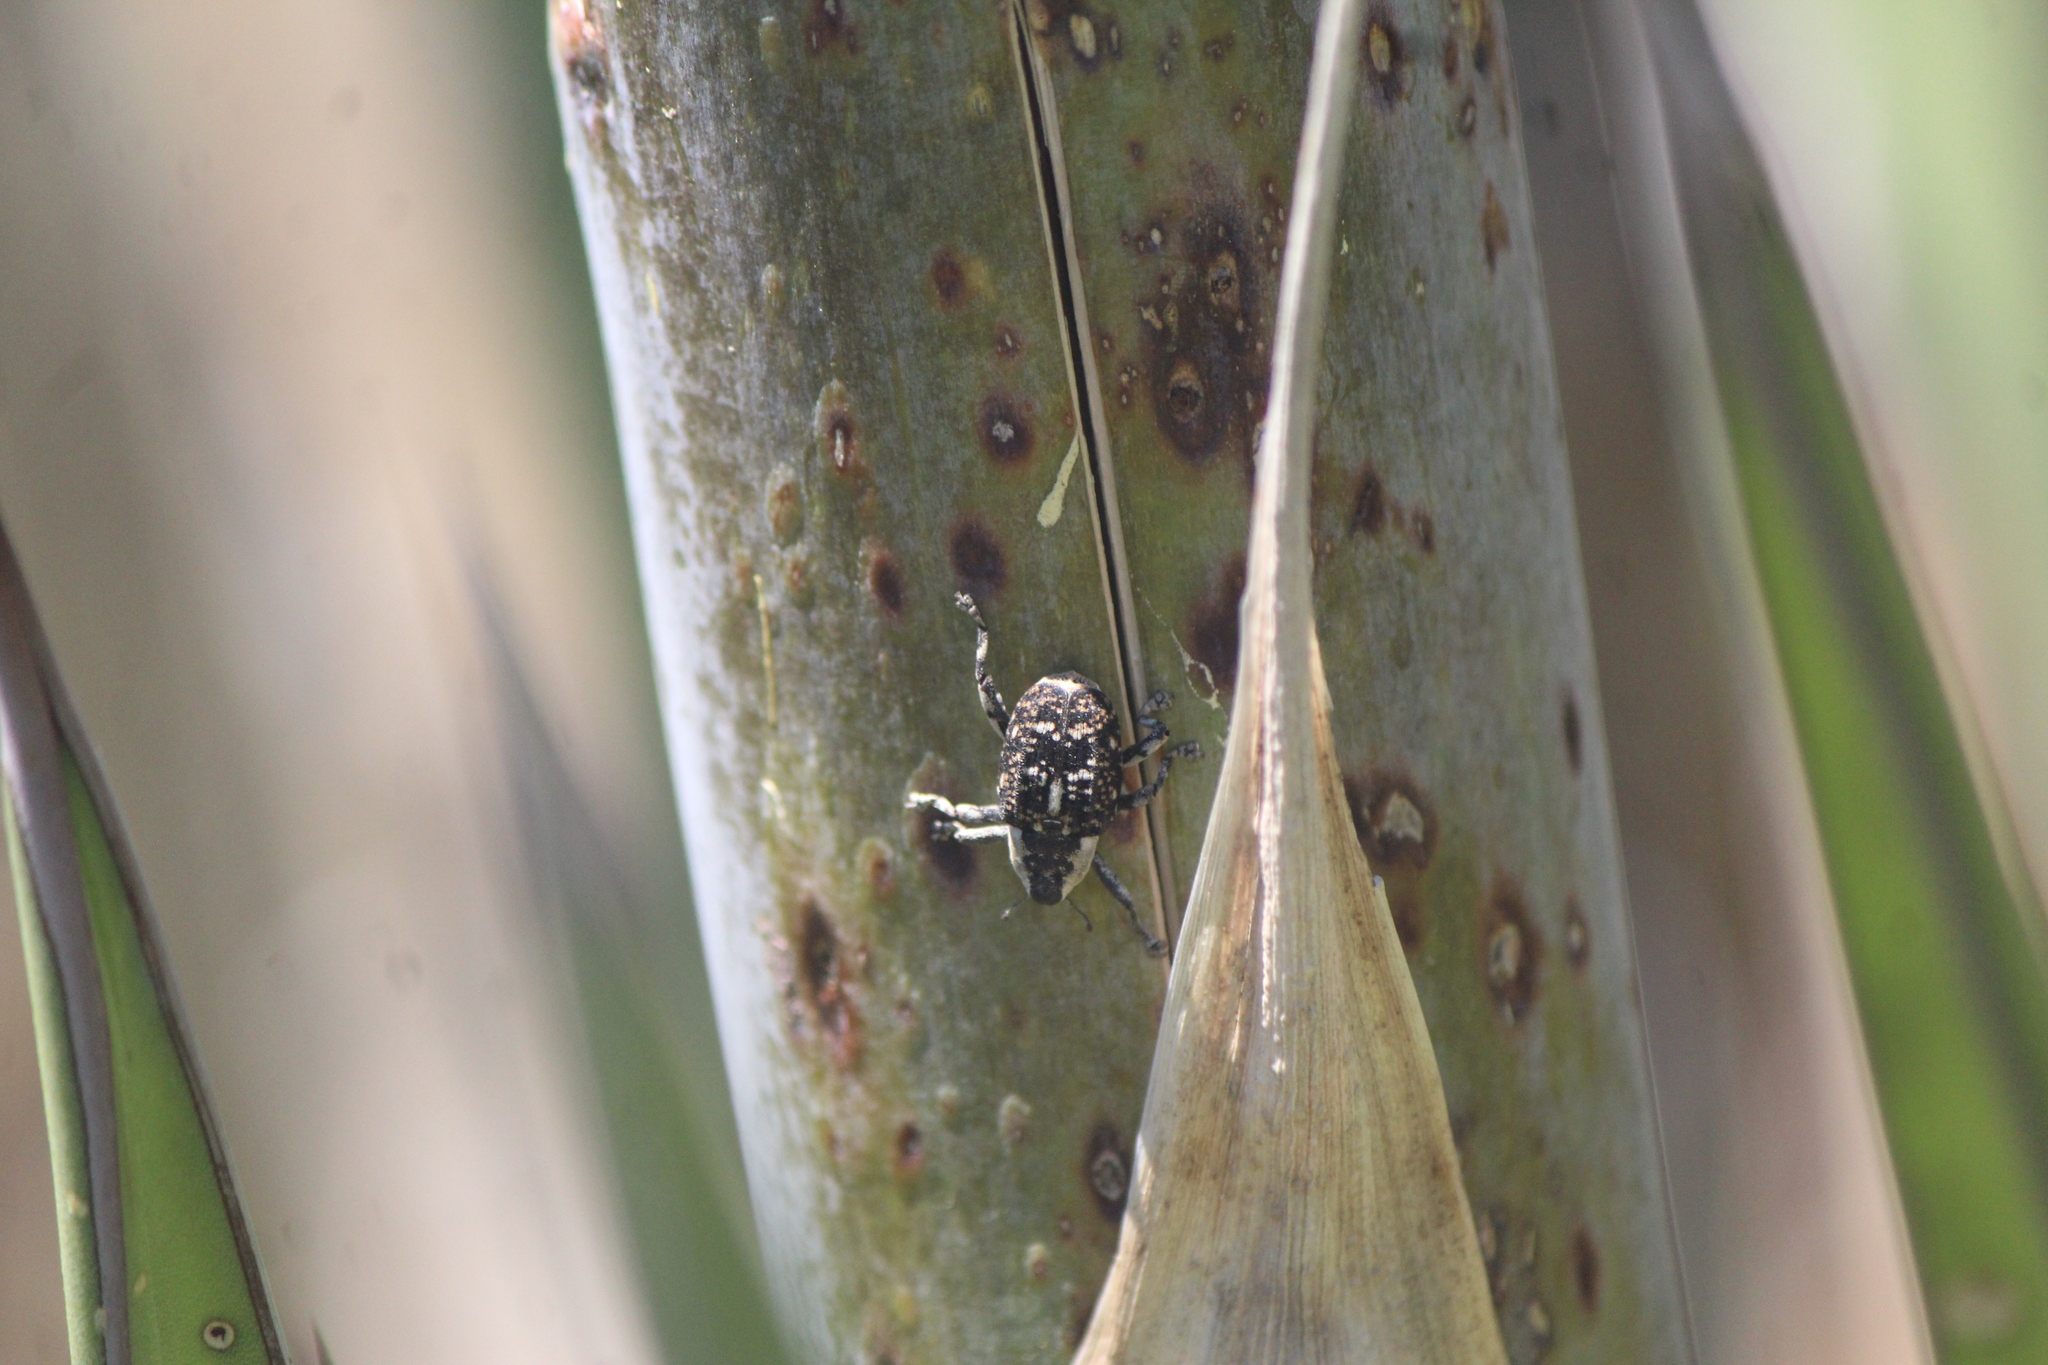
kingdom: Animalia
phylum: Arthropoda
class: Insecta
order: Coleoptera
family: Curculionidae
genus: Peltophorus
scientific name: Peltophorus polymitus
